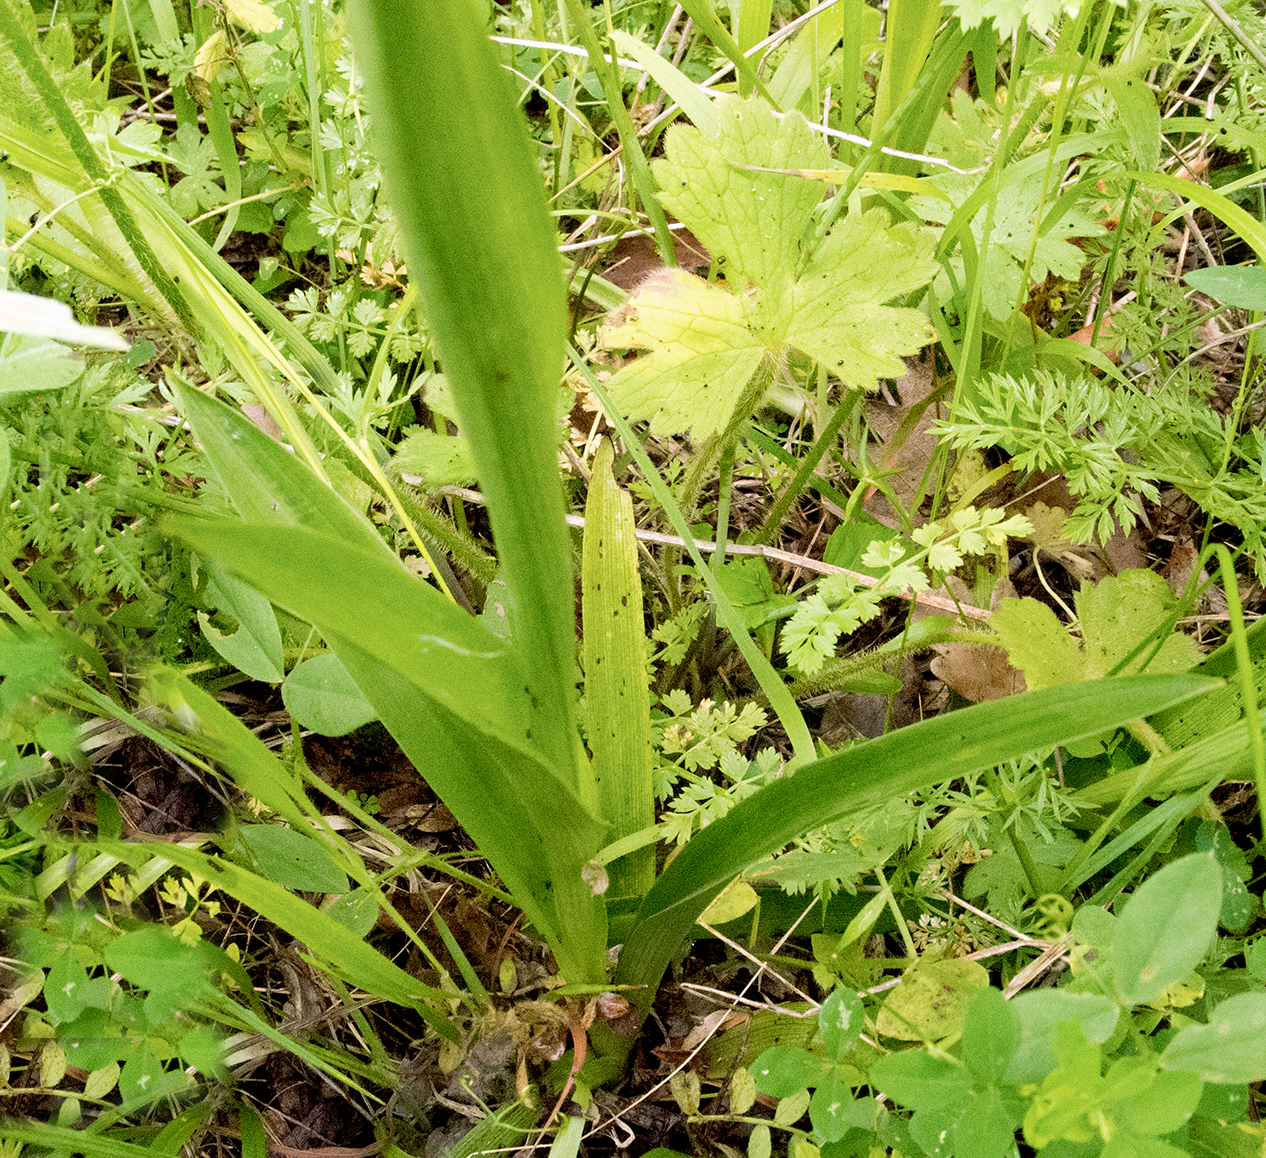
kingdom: Plantae
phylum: Tracheophyta
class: Liliopsida
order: Asparagales
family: Orchidaceae
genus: Anacamptis
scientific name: Anacamptis pyramidalis
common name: Pyramidal orchid
